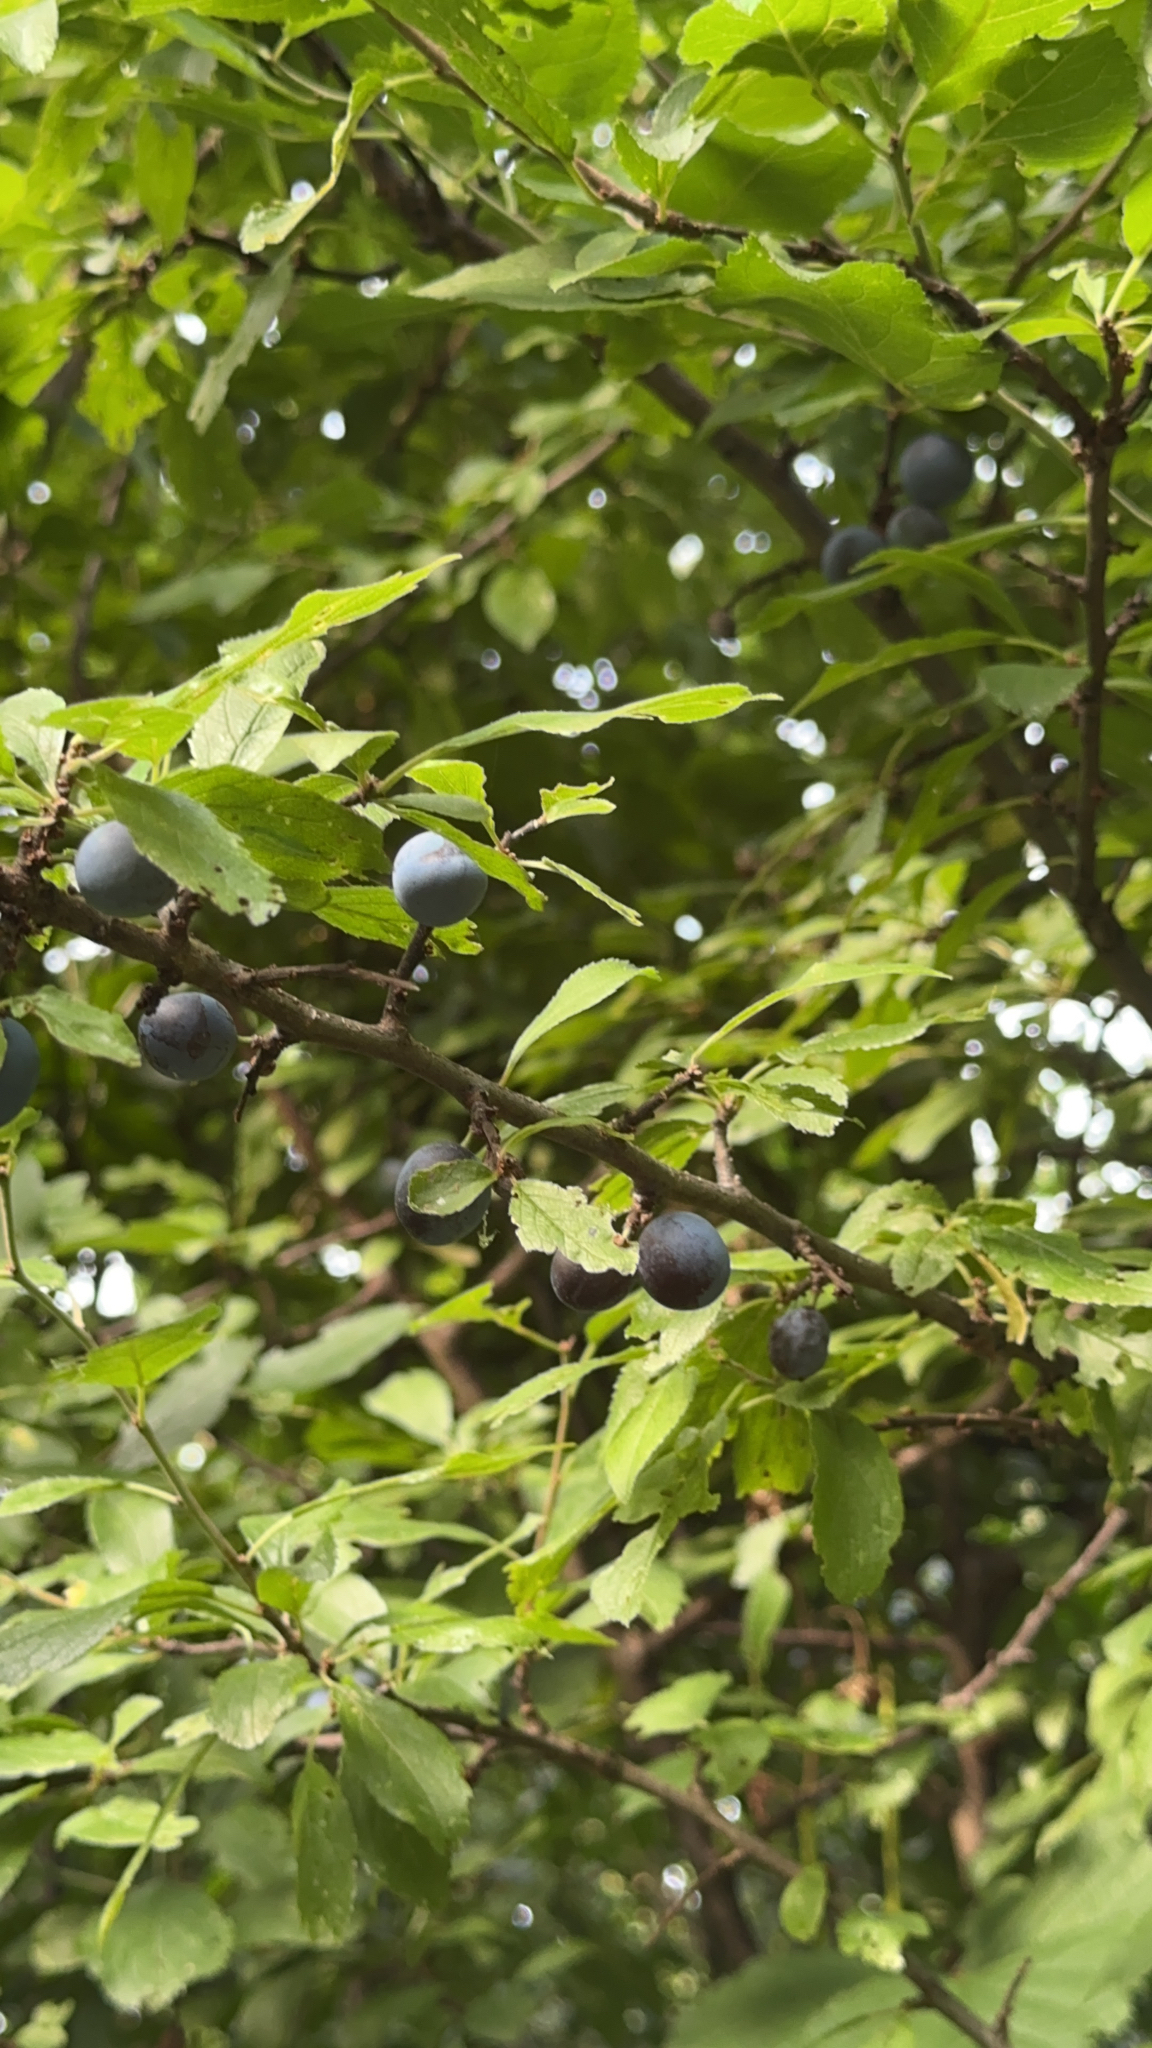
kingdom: Plantae
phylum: Tracheophyta
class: Magnoliopsida
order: Rosales
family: Rosaceae
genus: Prunus
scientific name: Prunus spinosa
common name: Blackthorn
